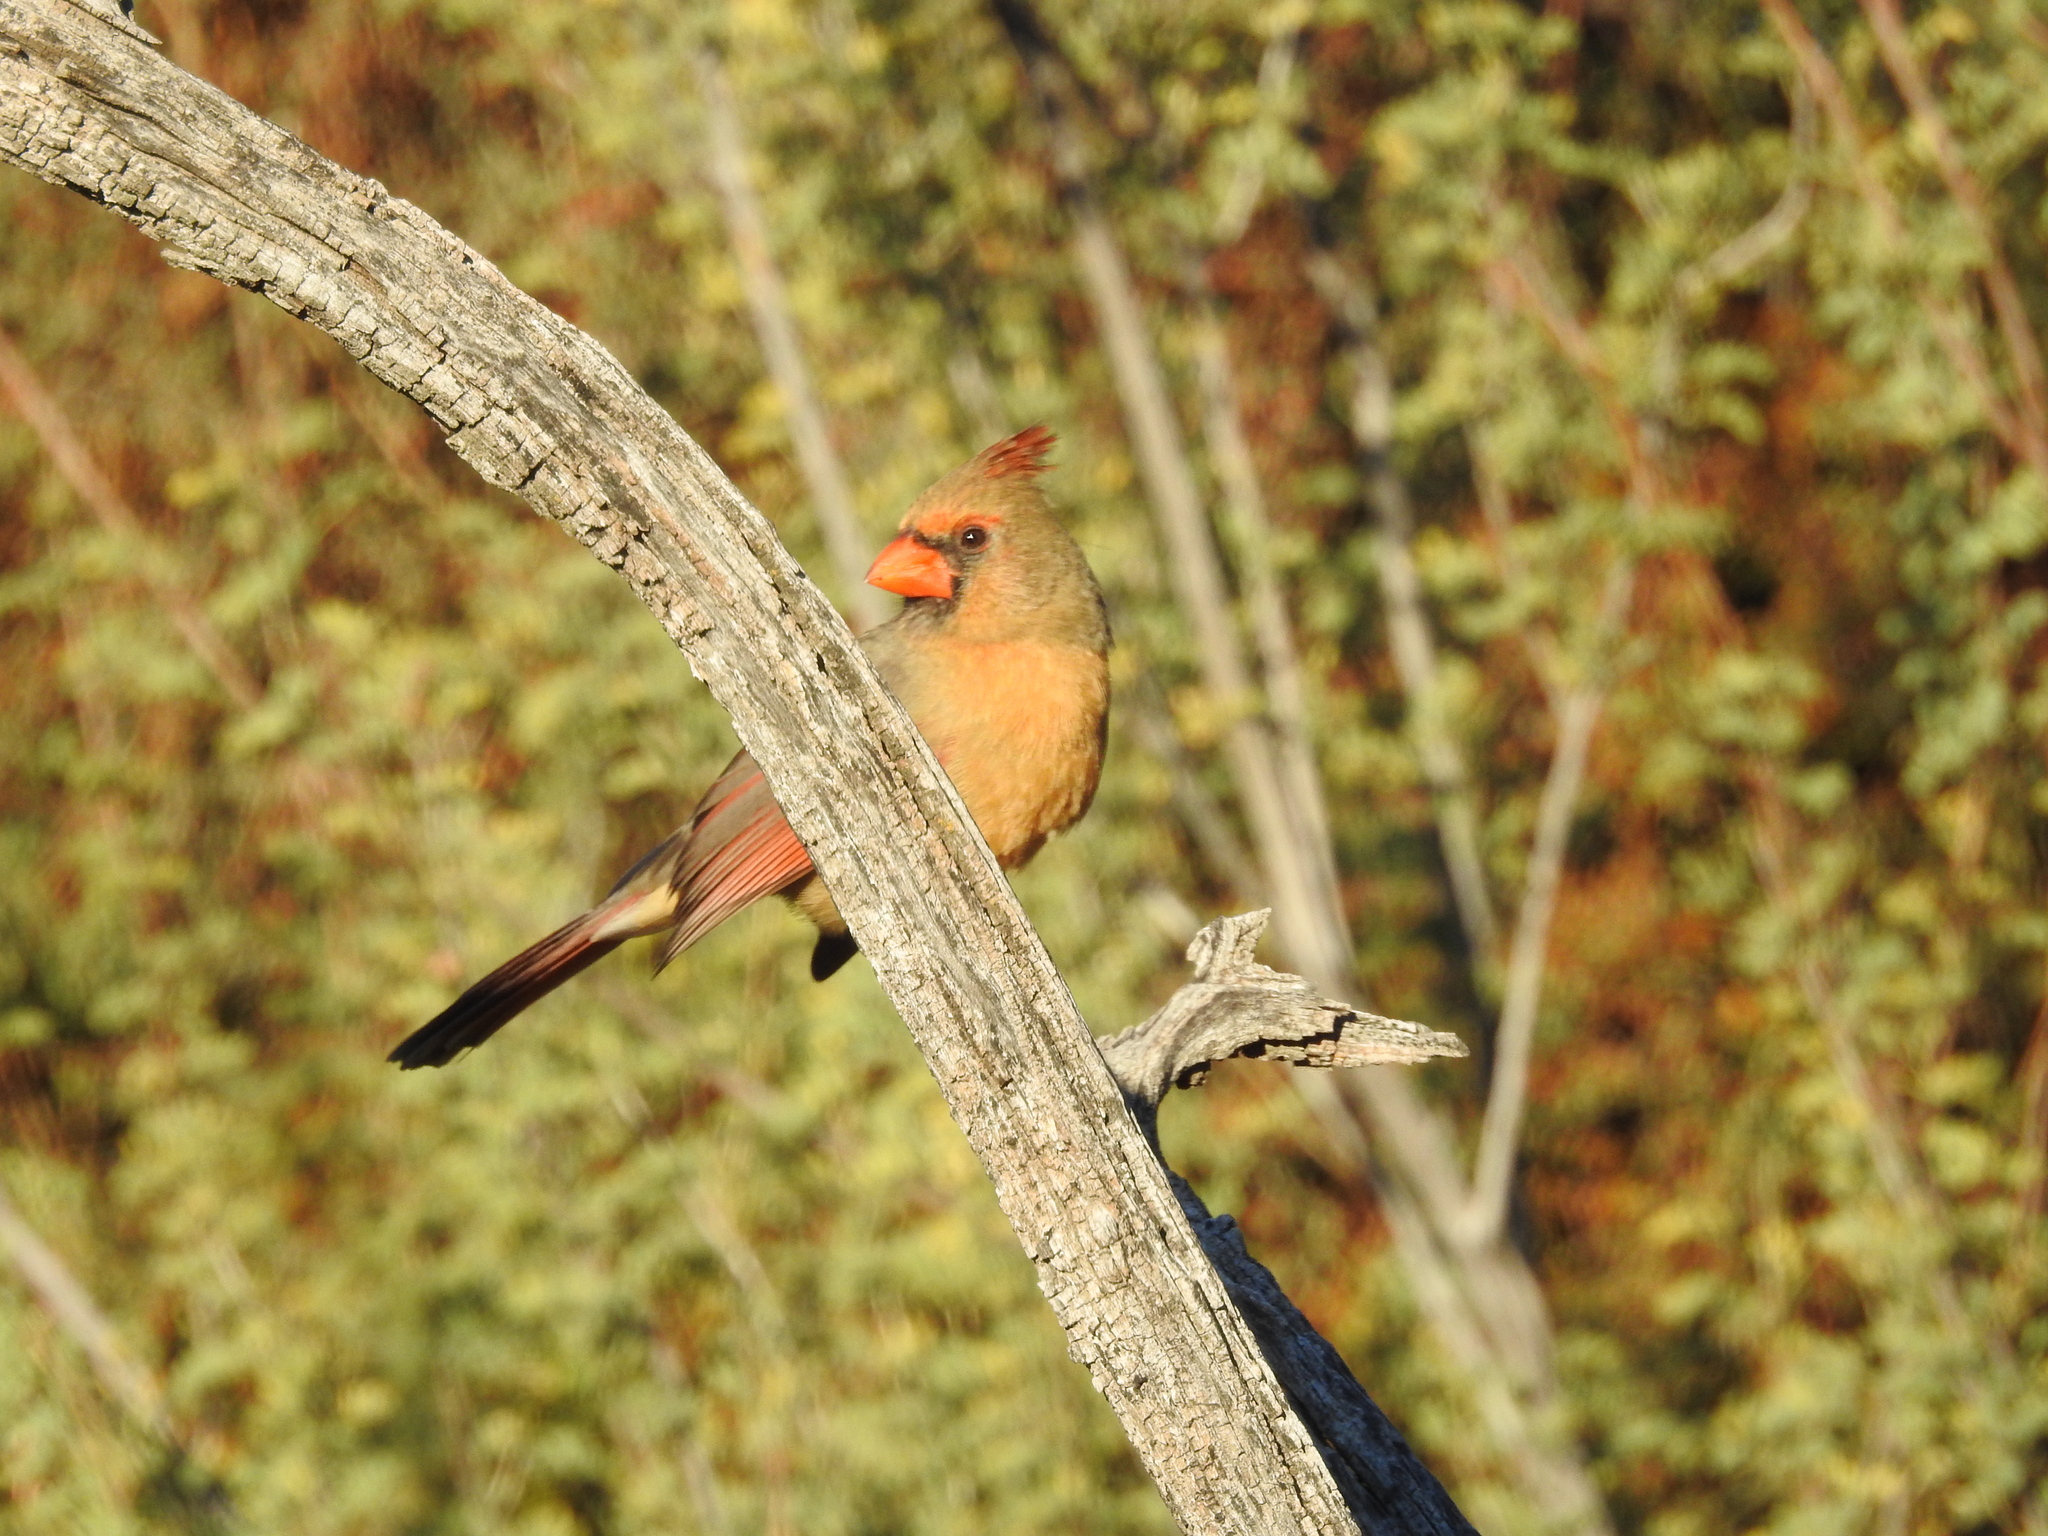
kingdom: Animalia
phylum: Chordata
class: Aves
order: Passeriformes
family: Cardinalidae
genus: Cardinalis
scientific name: Cardinalis cardinalis
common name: Northern cardinal
